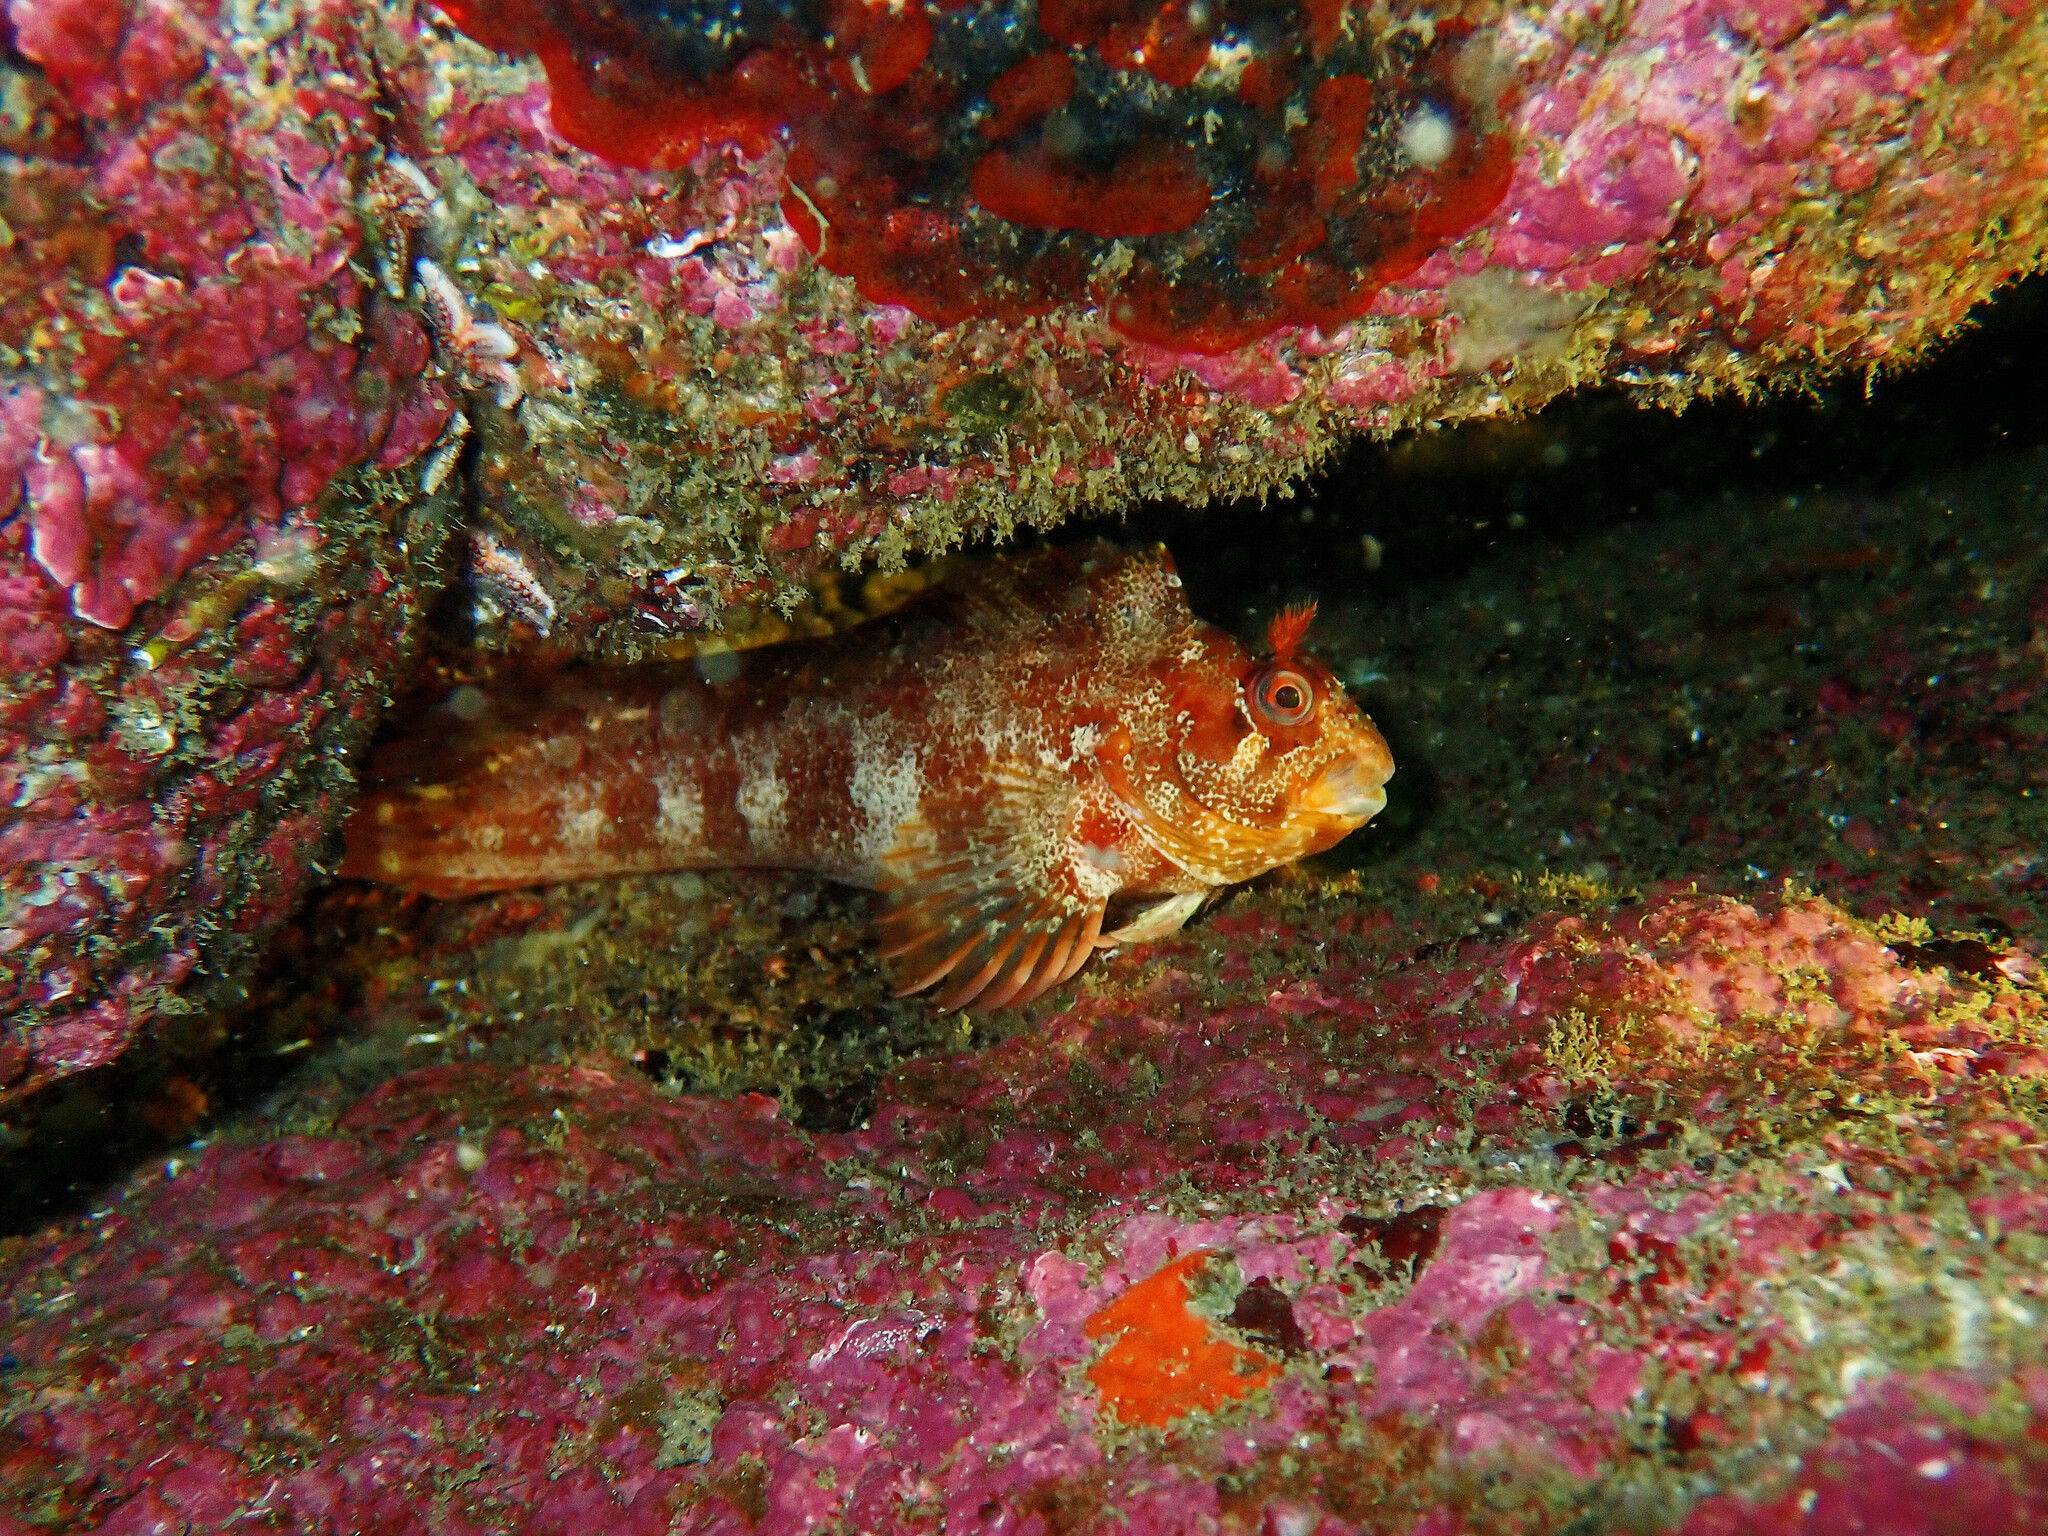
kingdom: Animalia
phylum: Chordata
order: Perciformes
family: Blenniidae
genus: Parablennius
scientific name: Parablennius gattorugine
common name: Tompot blenny
